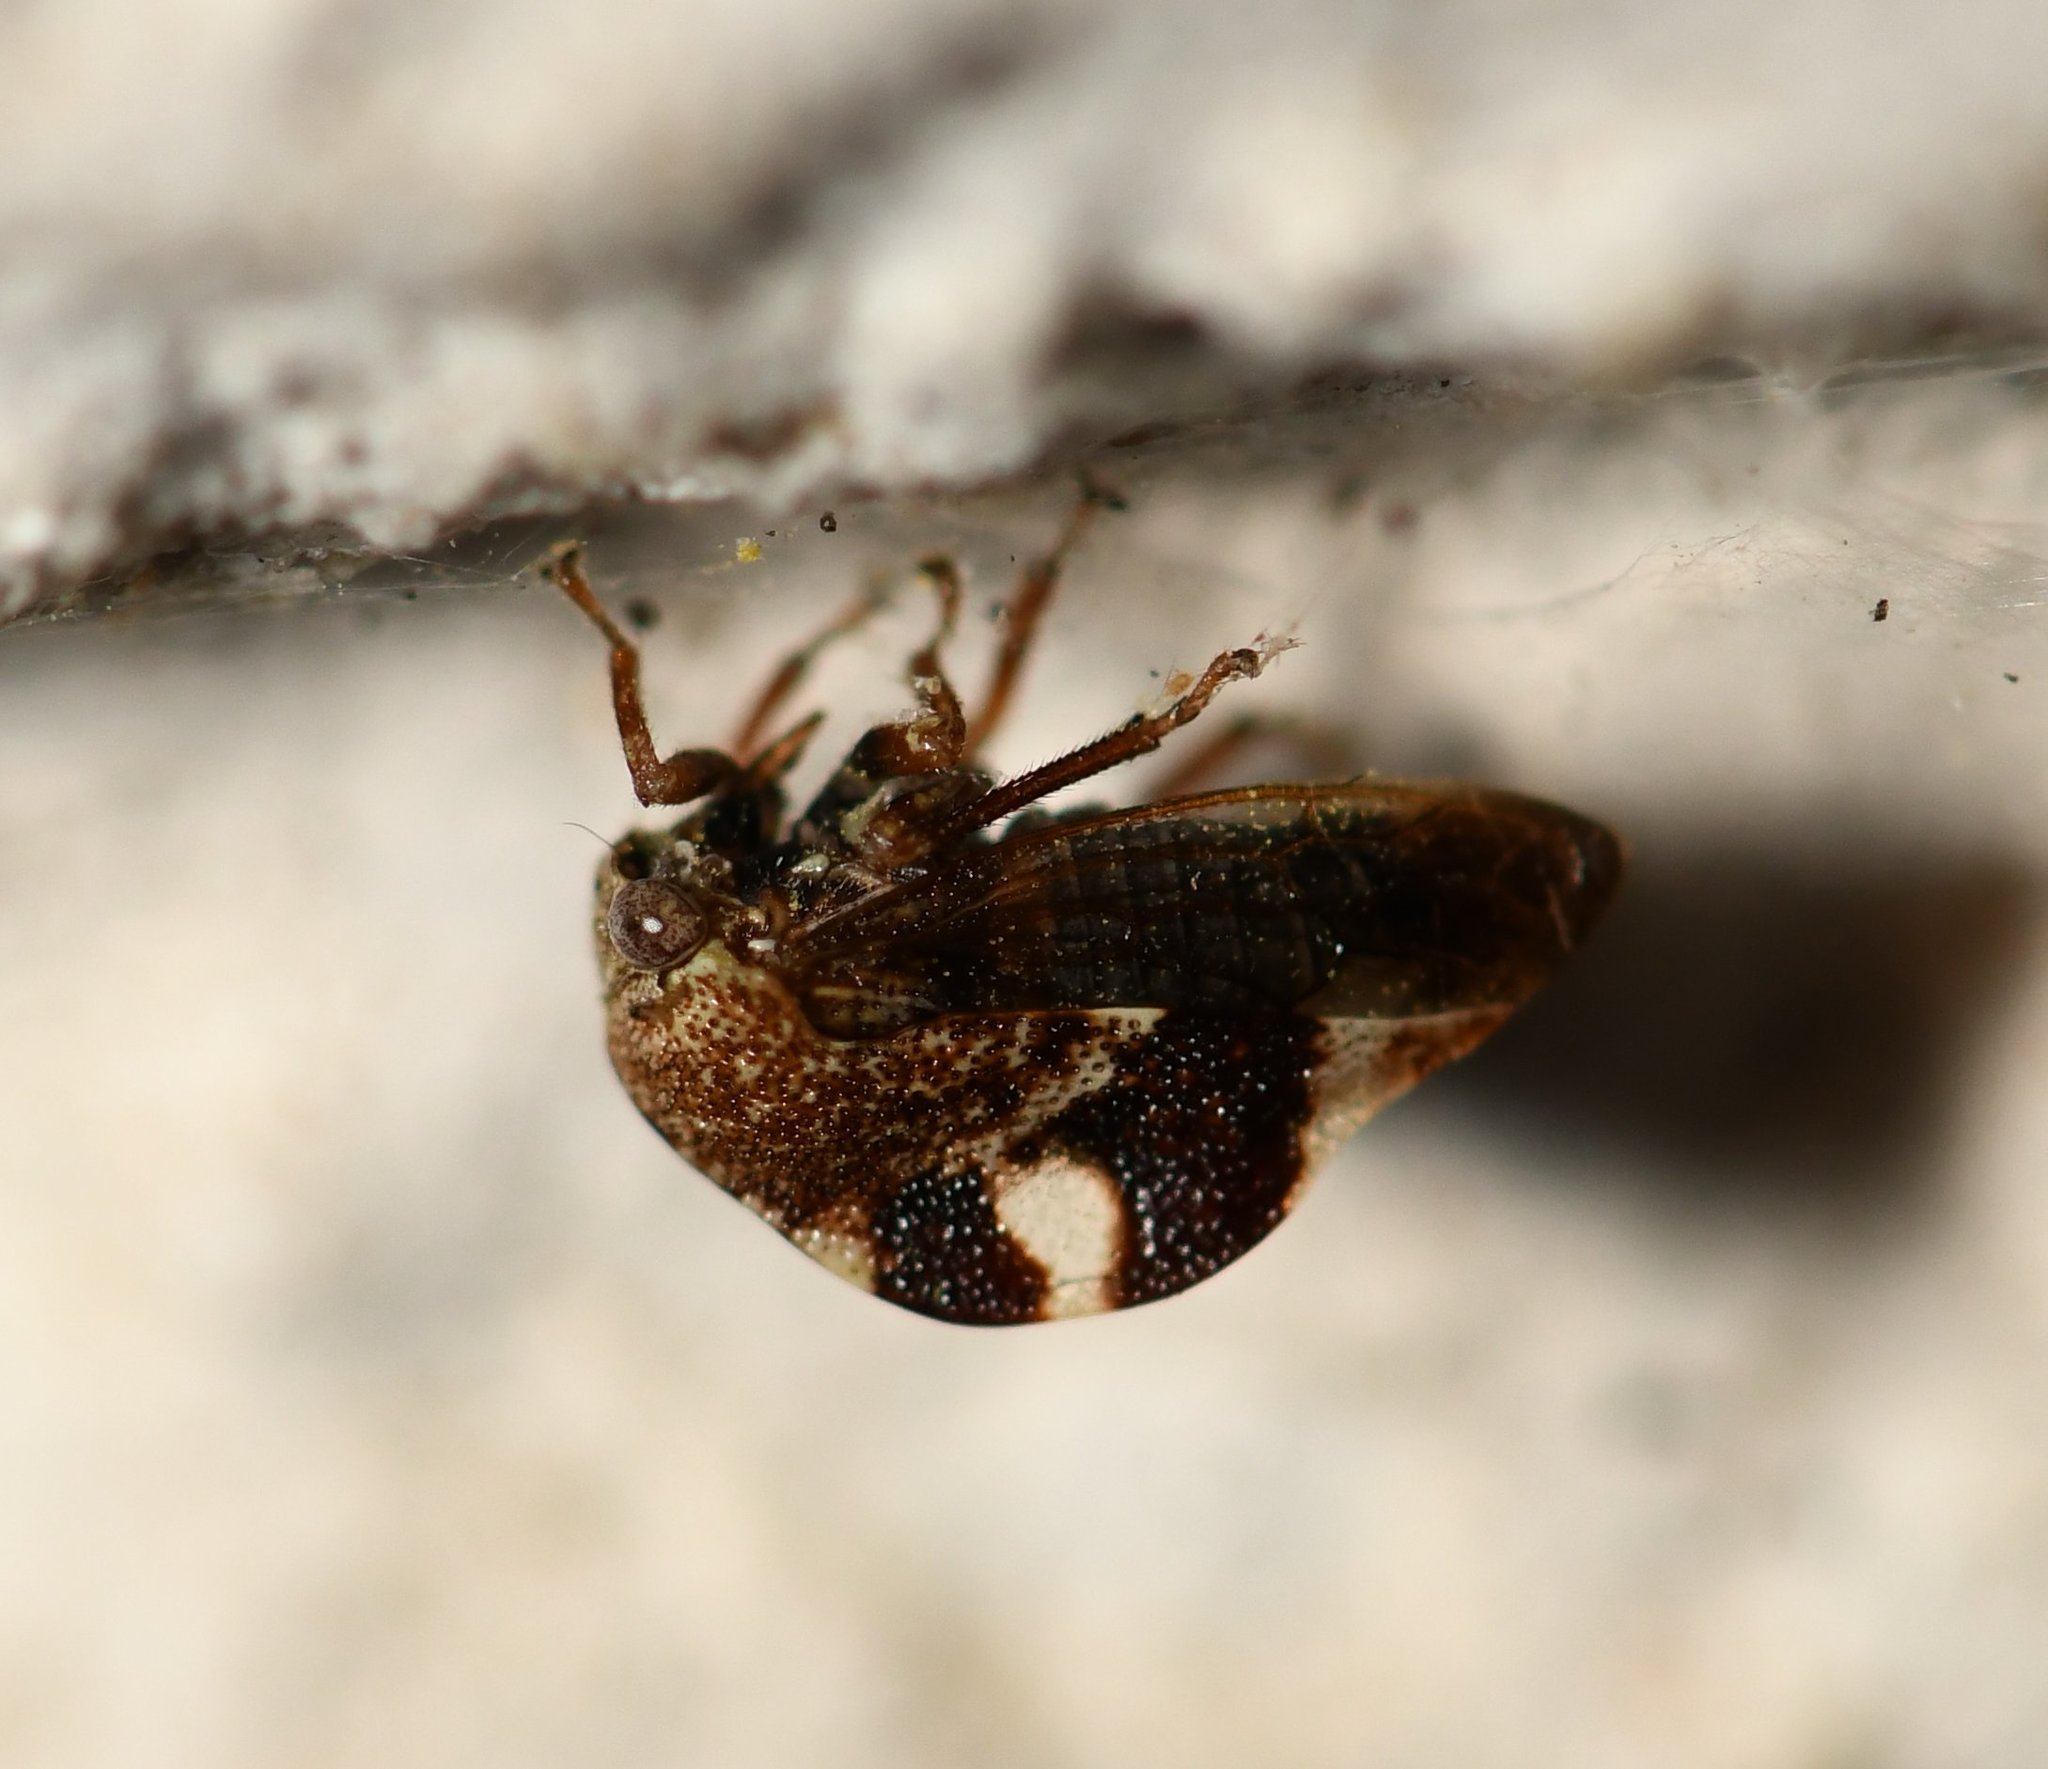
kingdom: Animalia
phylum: Arthropoda
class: Insecta
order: Hemiptera
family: Membracidae
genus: Cyrtolobus
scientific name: Cyrtolobus tuberosa
